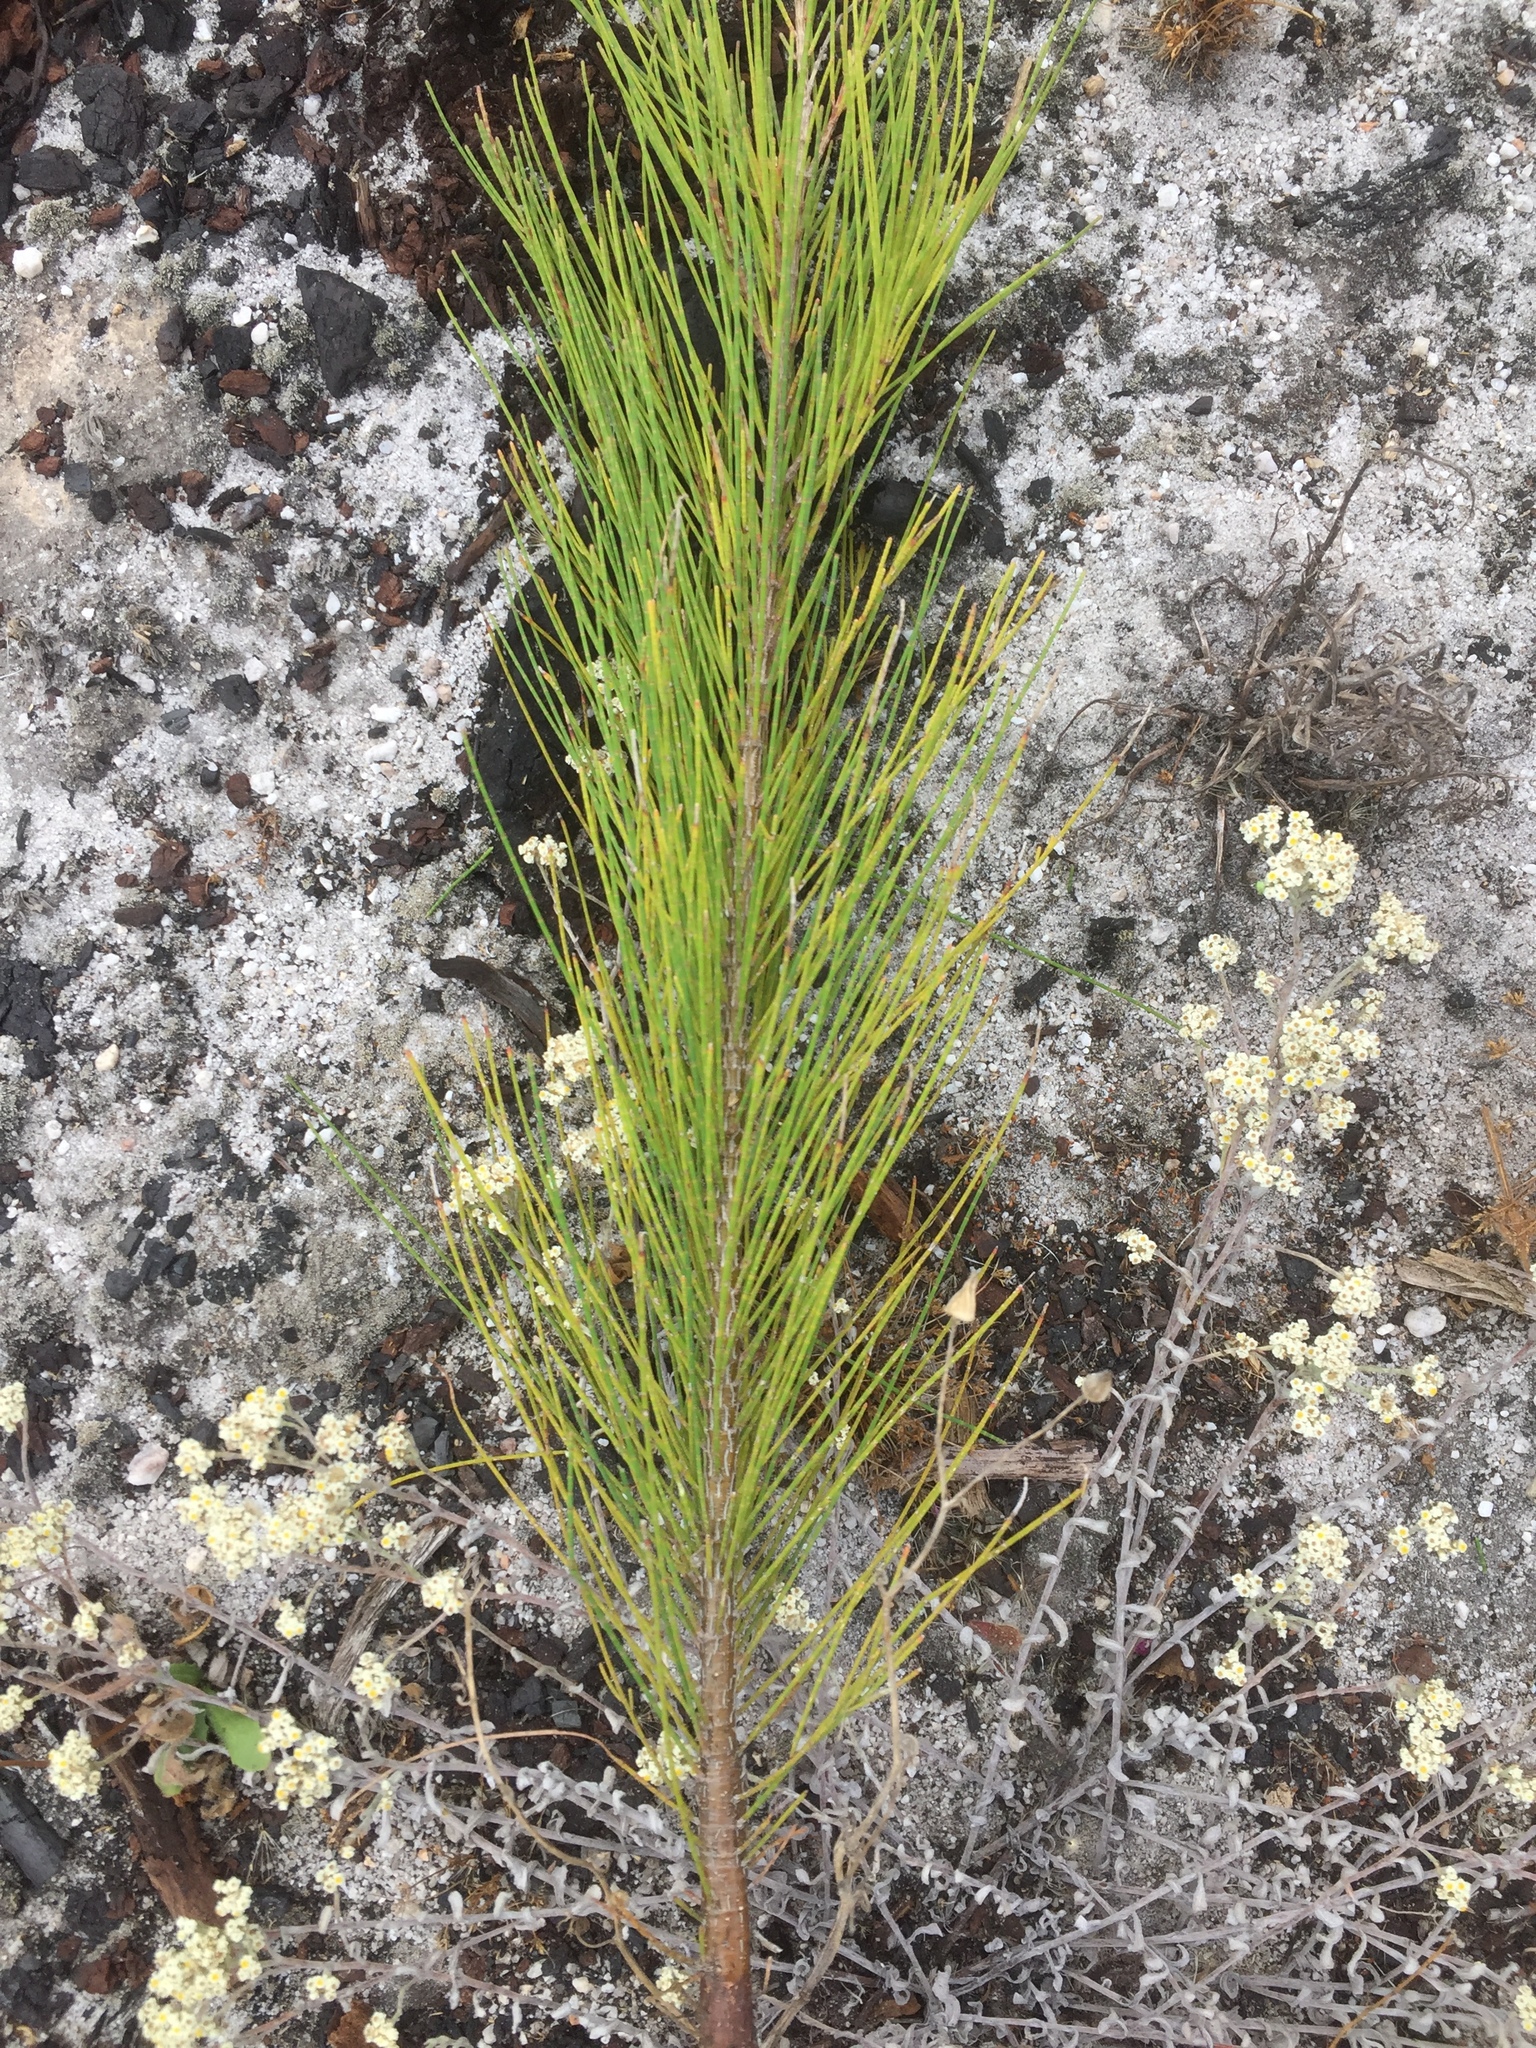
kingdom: Plantae
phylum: Tracheophyta
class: Magnoliopsida
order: Fagales
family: Casuarinaceae
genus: Casuarina
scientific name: Casuarina cunninghamiana
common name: River sheoak
